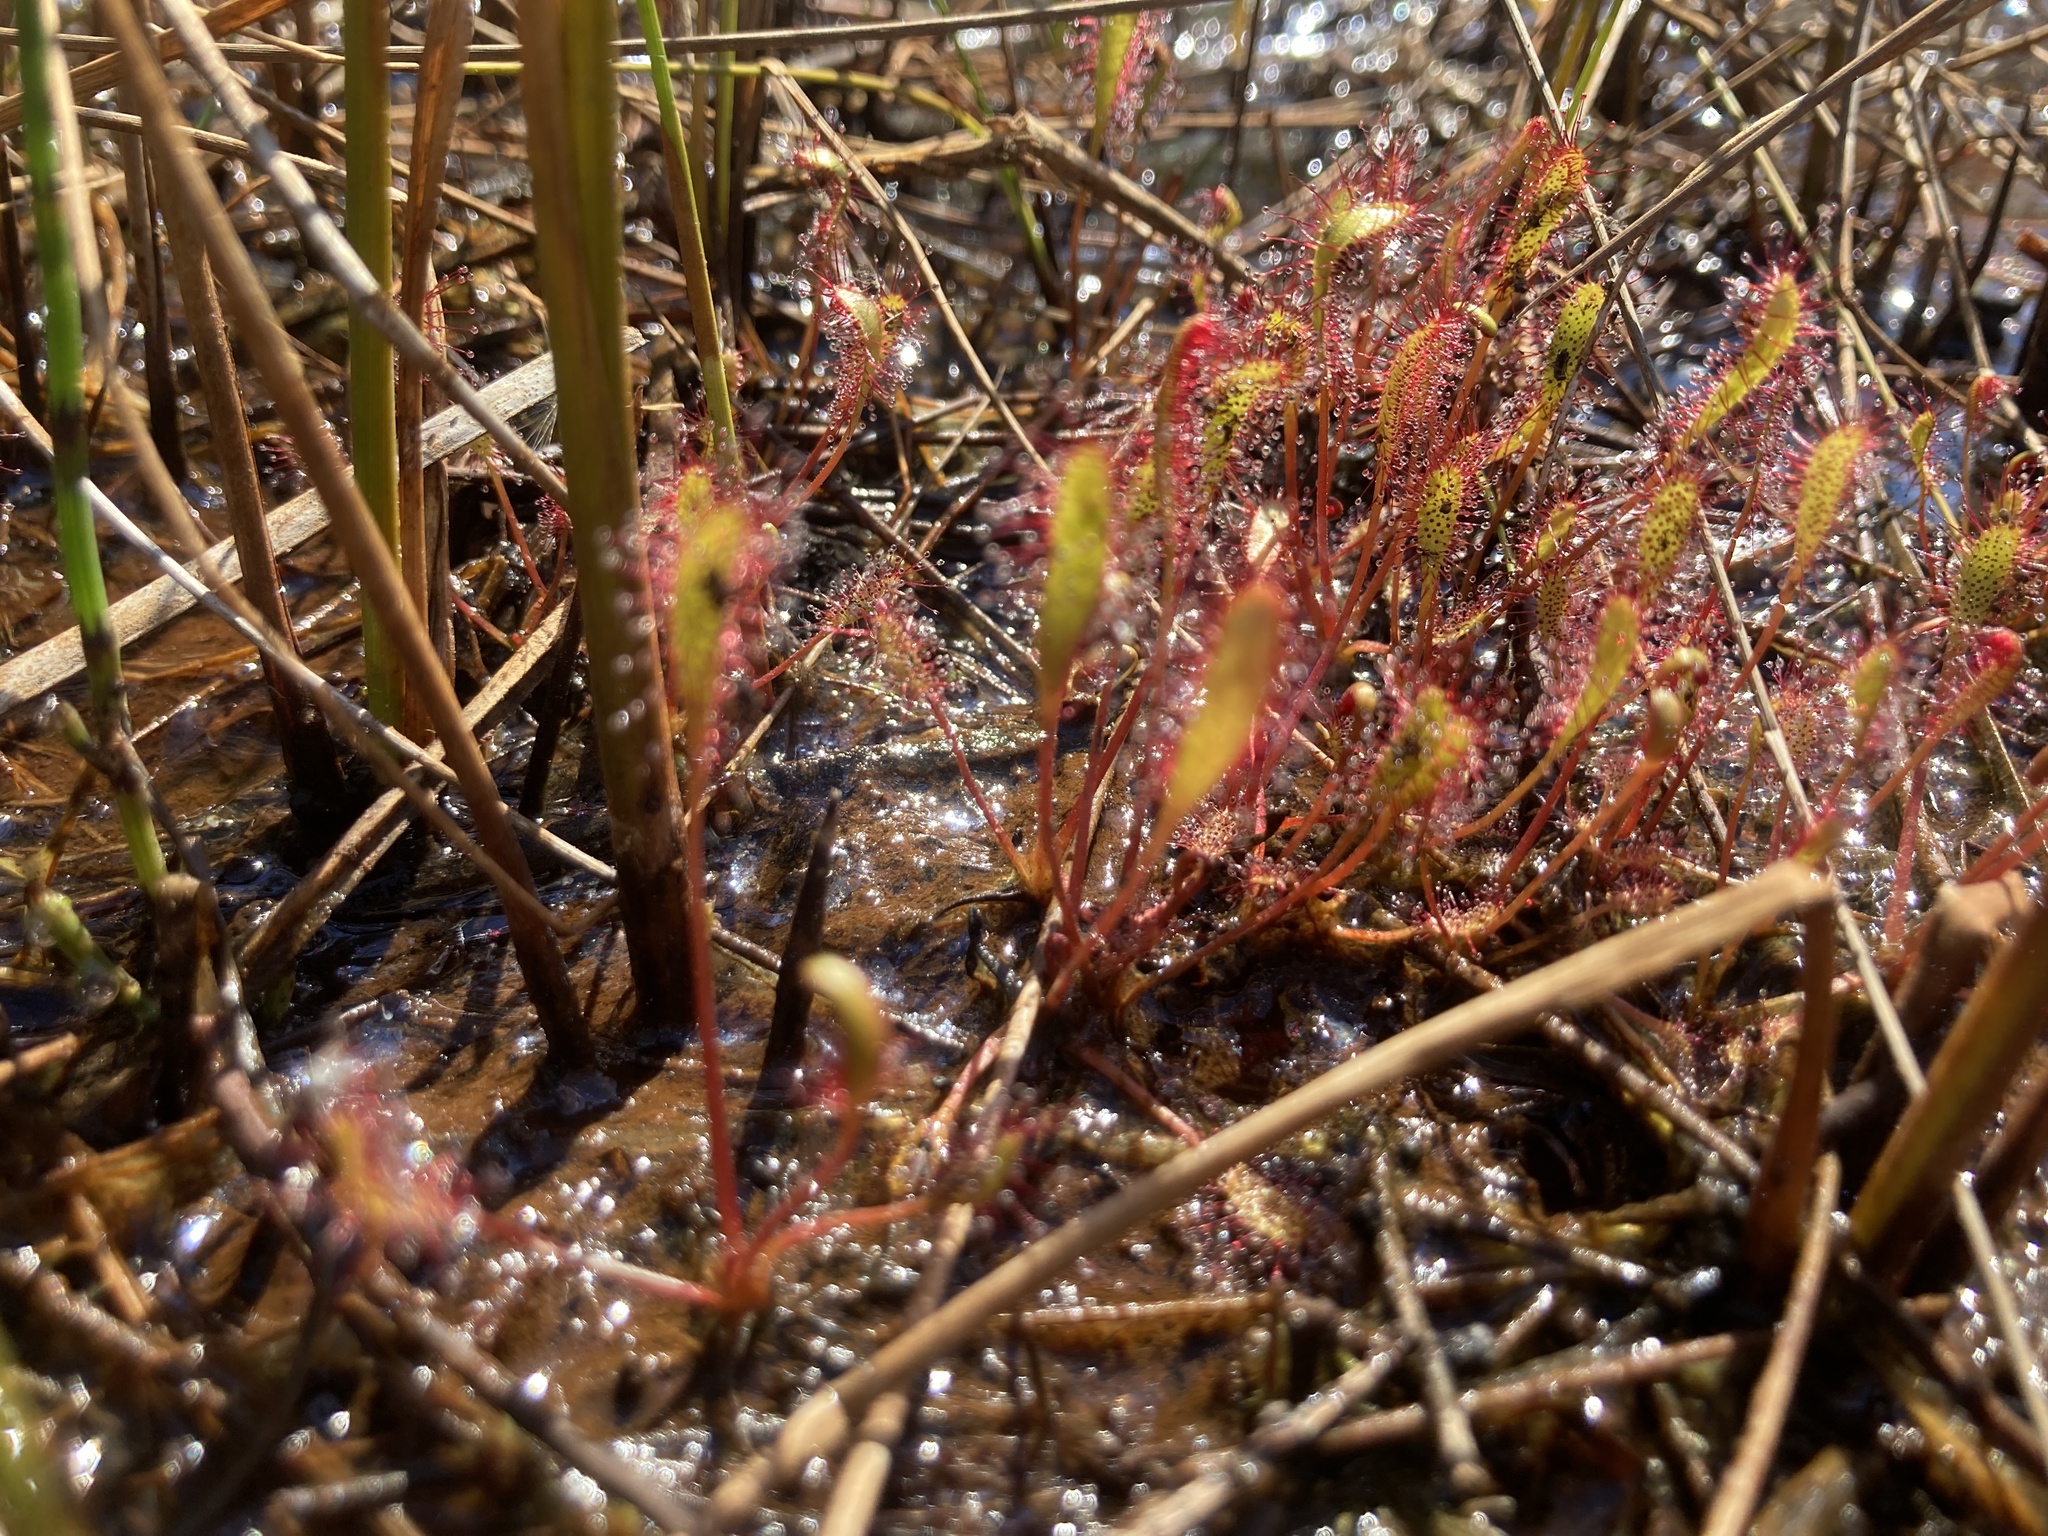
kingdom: Plantae
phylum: Tracheophyta
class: Magnoliopsida
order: Caryophyllales
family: Droseraceae
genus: Drosera
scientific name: Drosera anglica
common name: Great sundew
